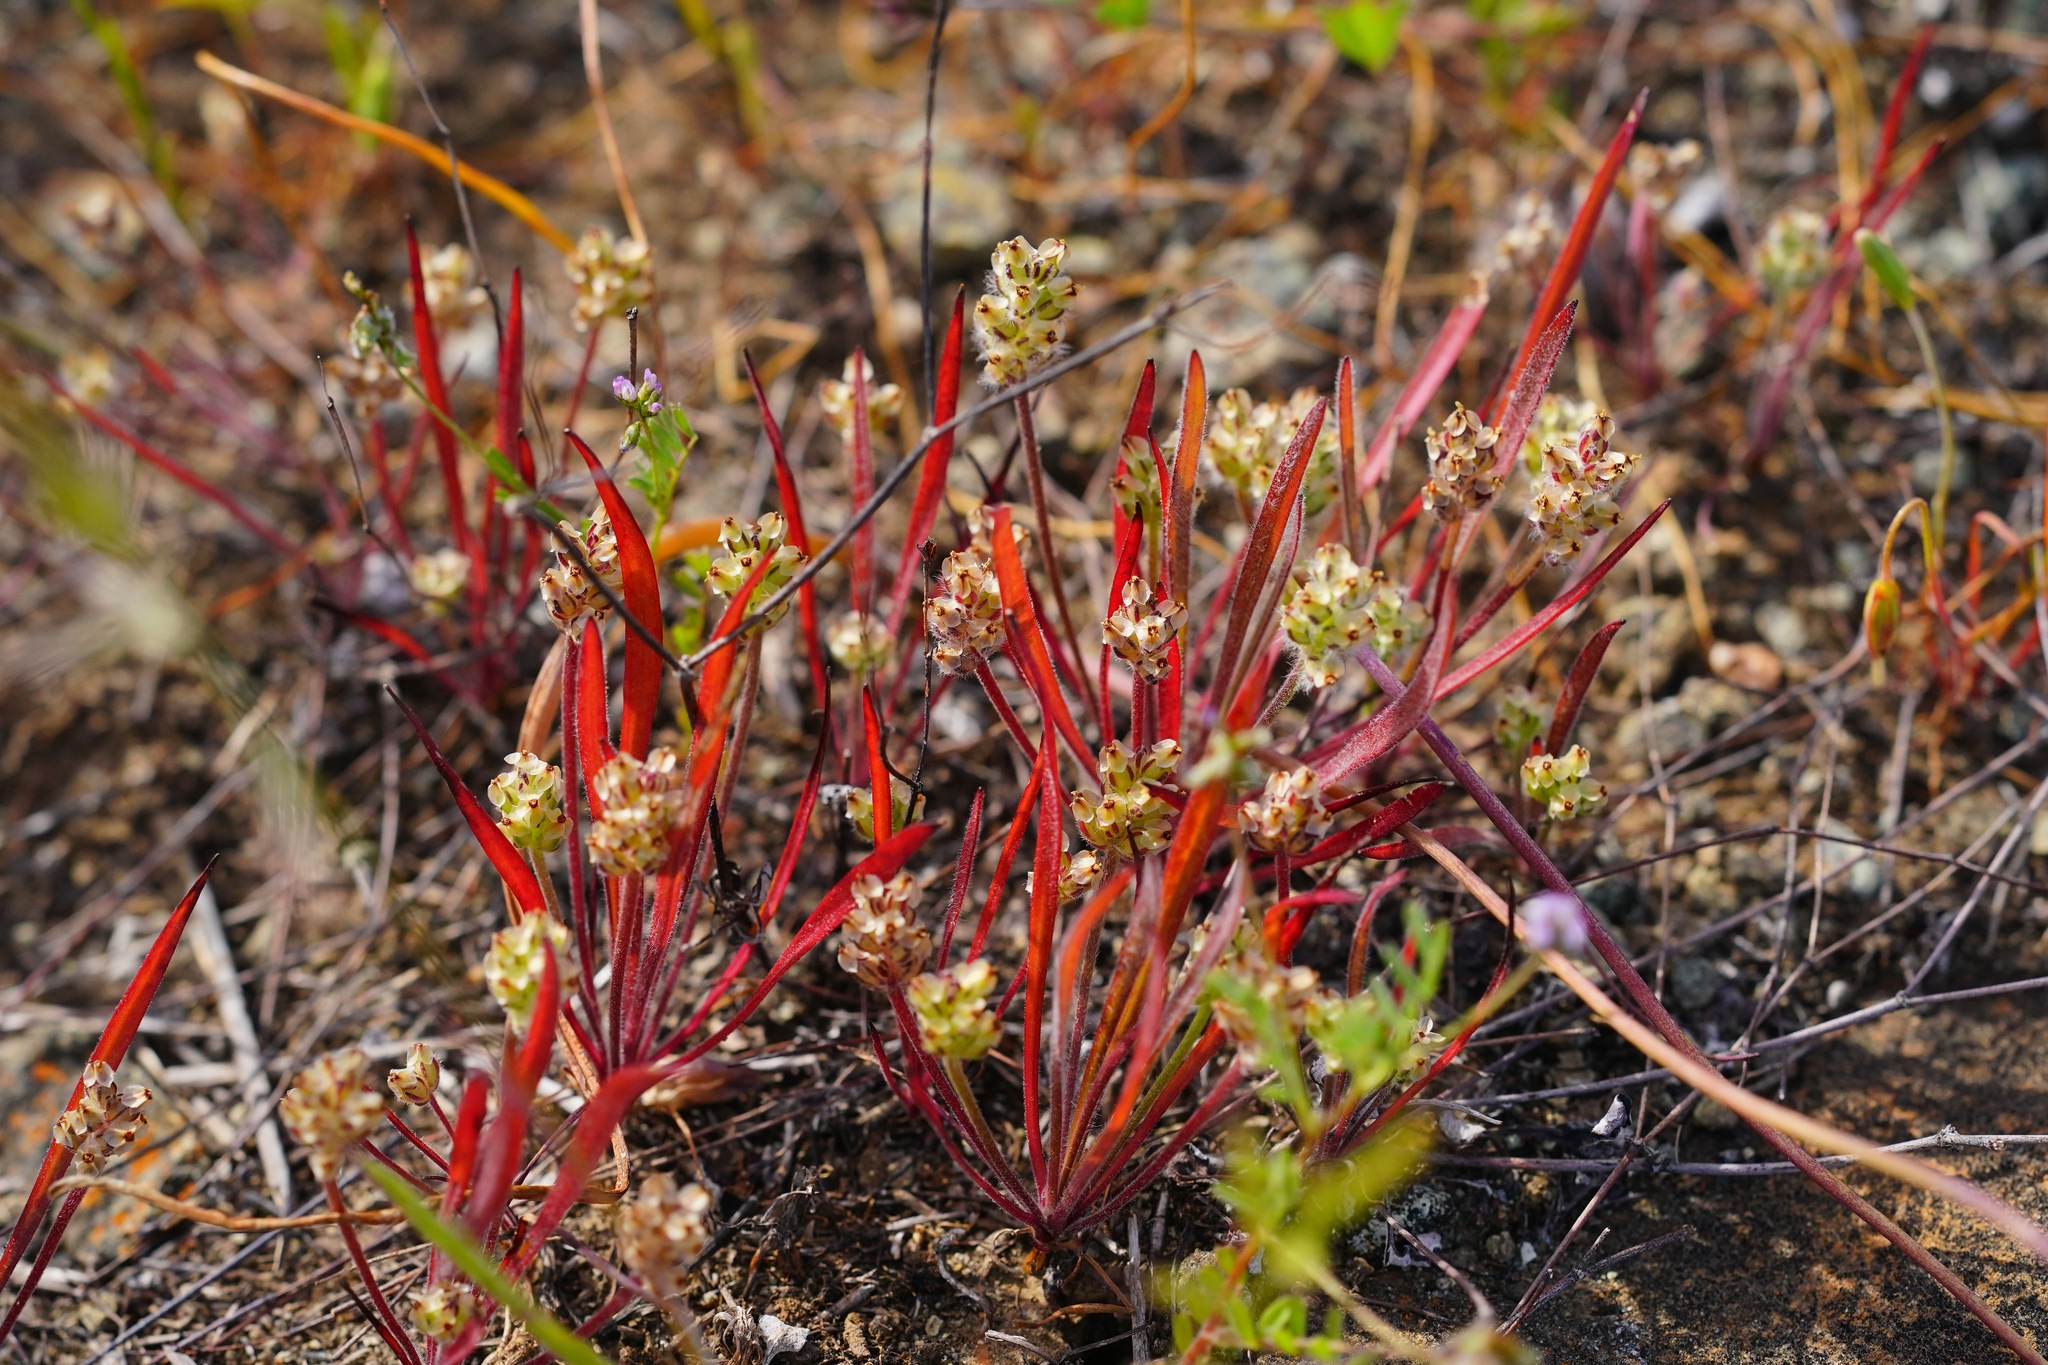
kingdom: Plantae
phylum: Tracheophyta
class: Magnoliopsida
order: Lamiales
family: Plantaginaceae
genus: Plantago
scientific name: Plantago erecta
